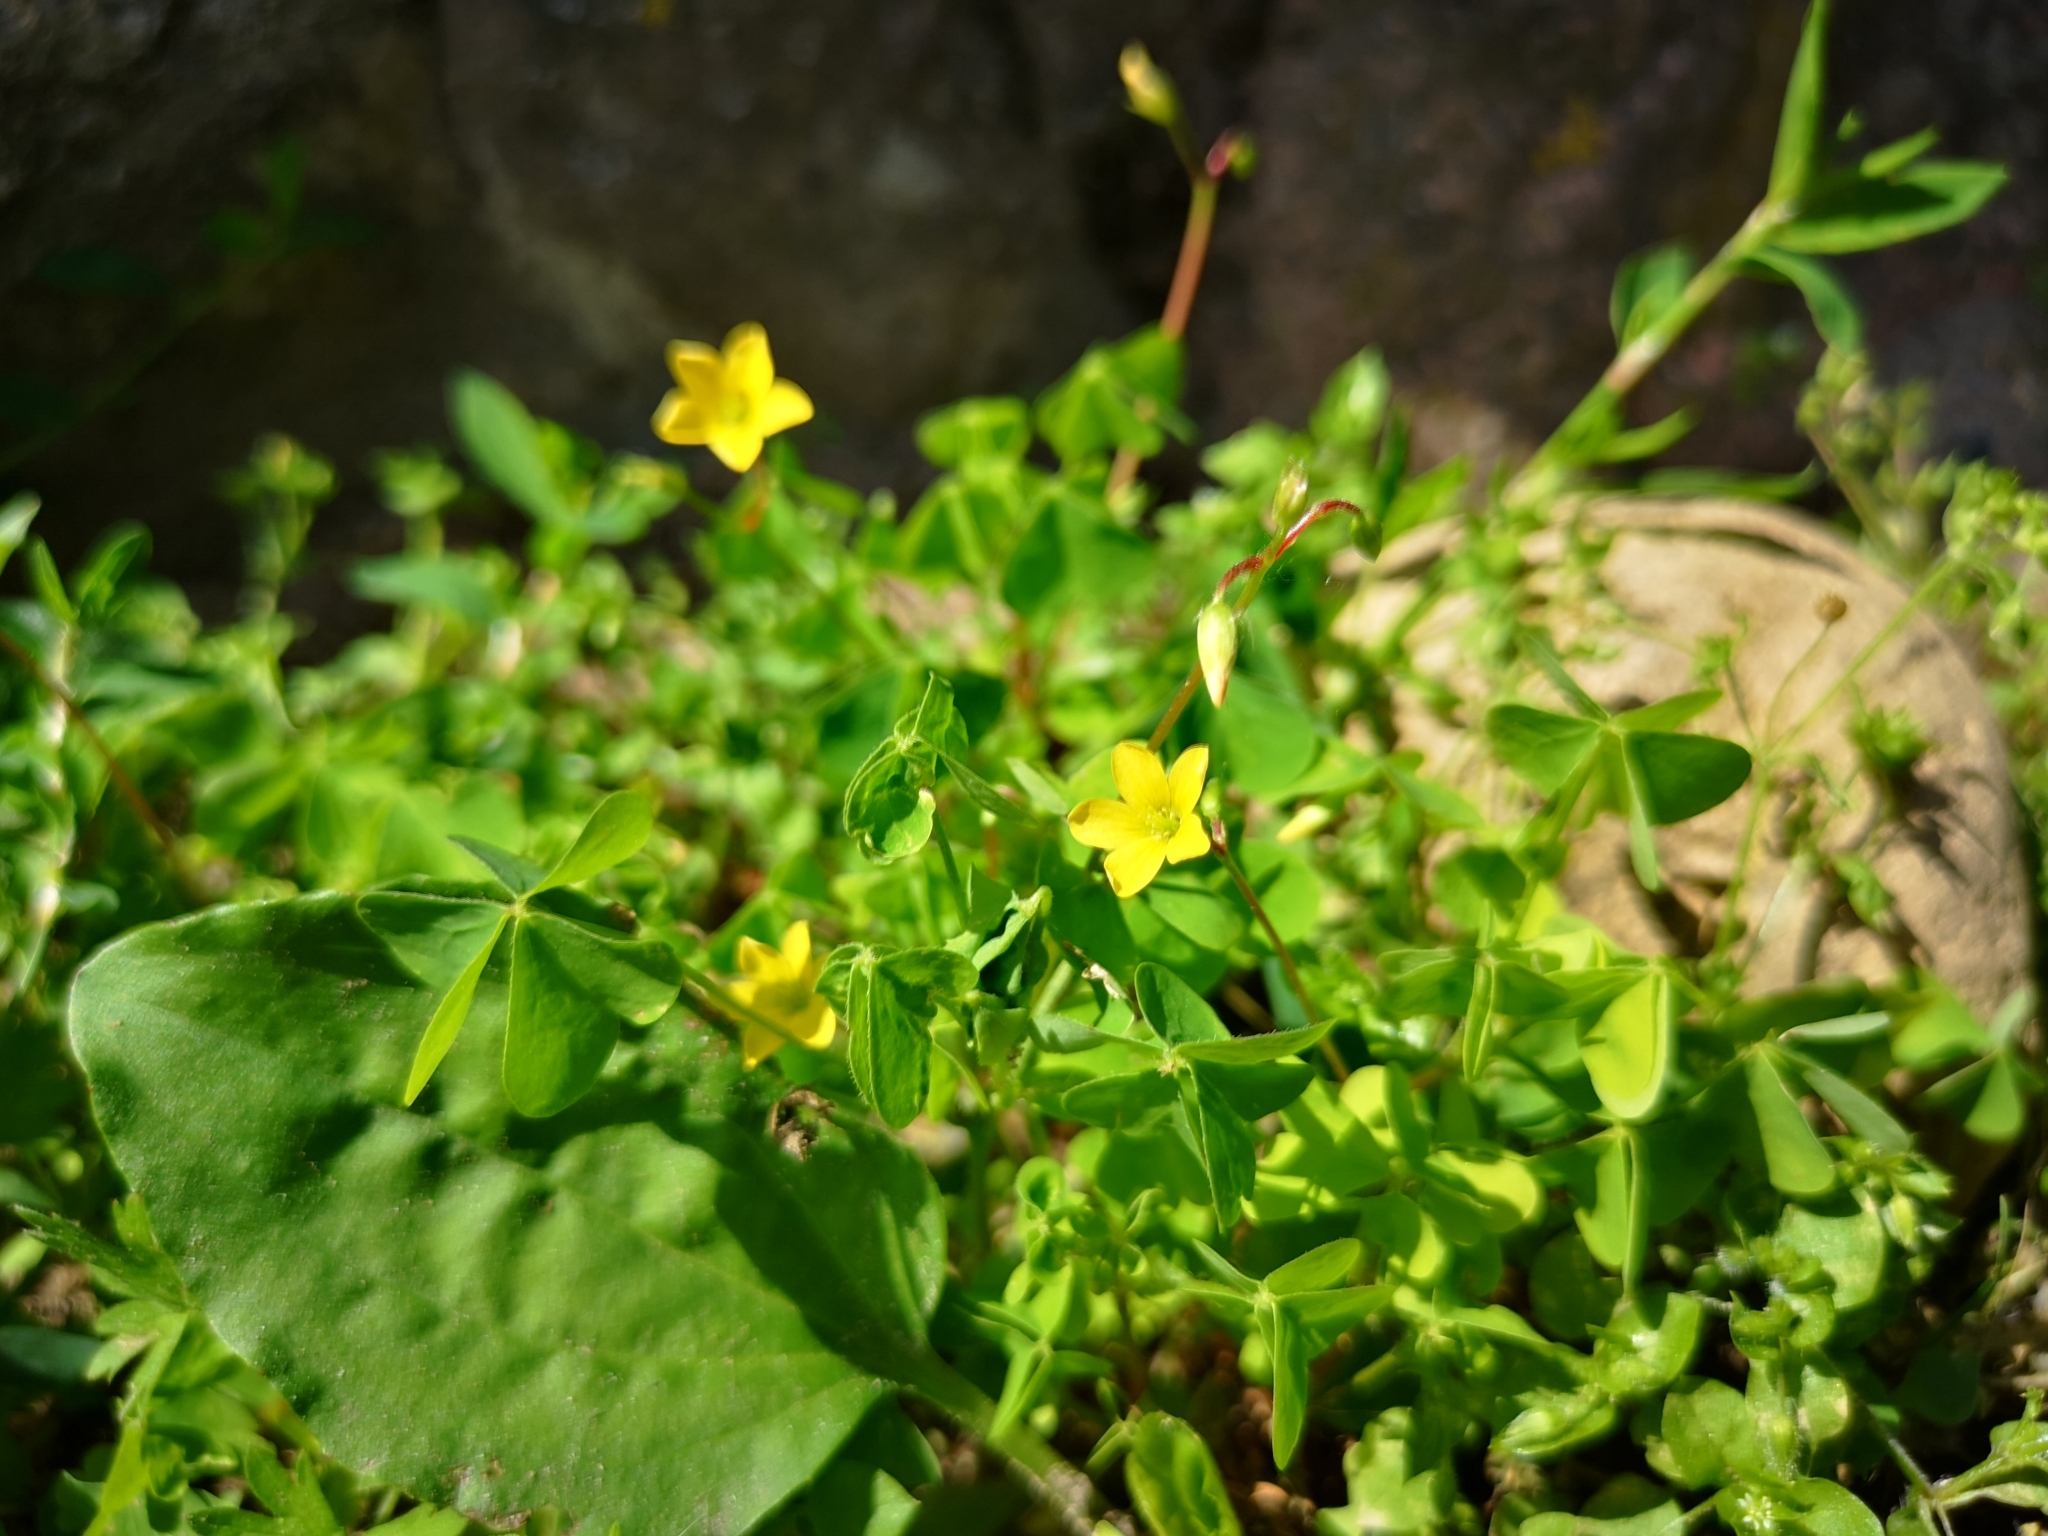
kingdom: Plantae
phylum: Tracheophyta
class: Magnoliopsida
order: Oxalidales
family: Oxalidaceae
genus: Oxalis
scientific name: Oxalis stricta
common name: Upright yellow-sorrel
